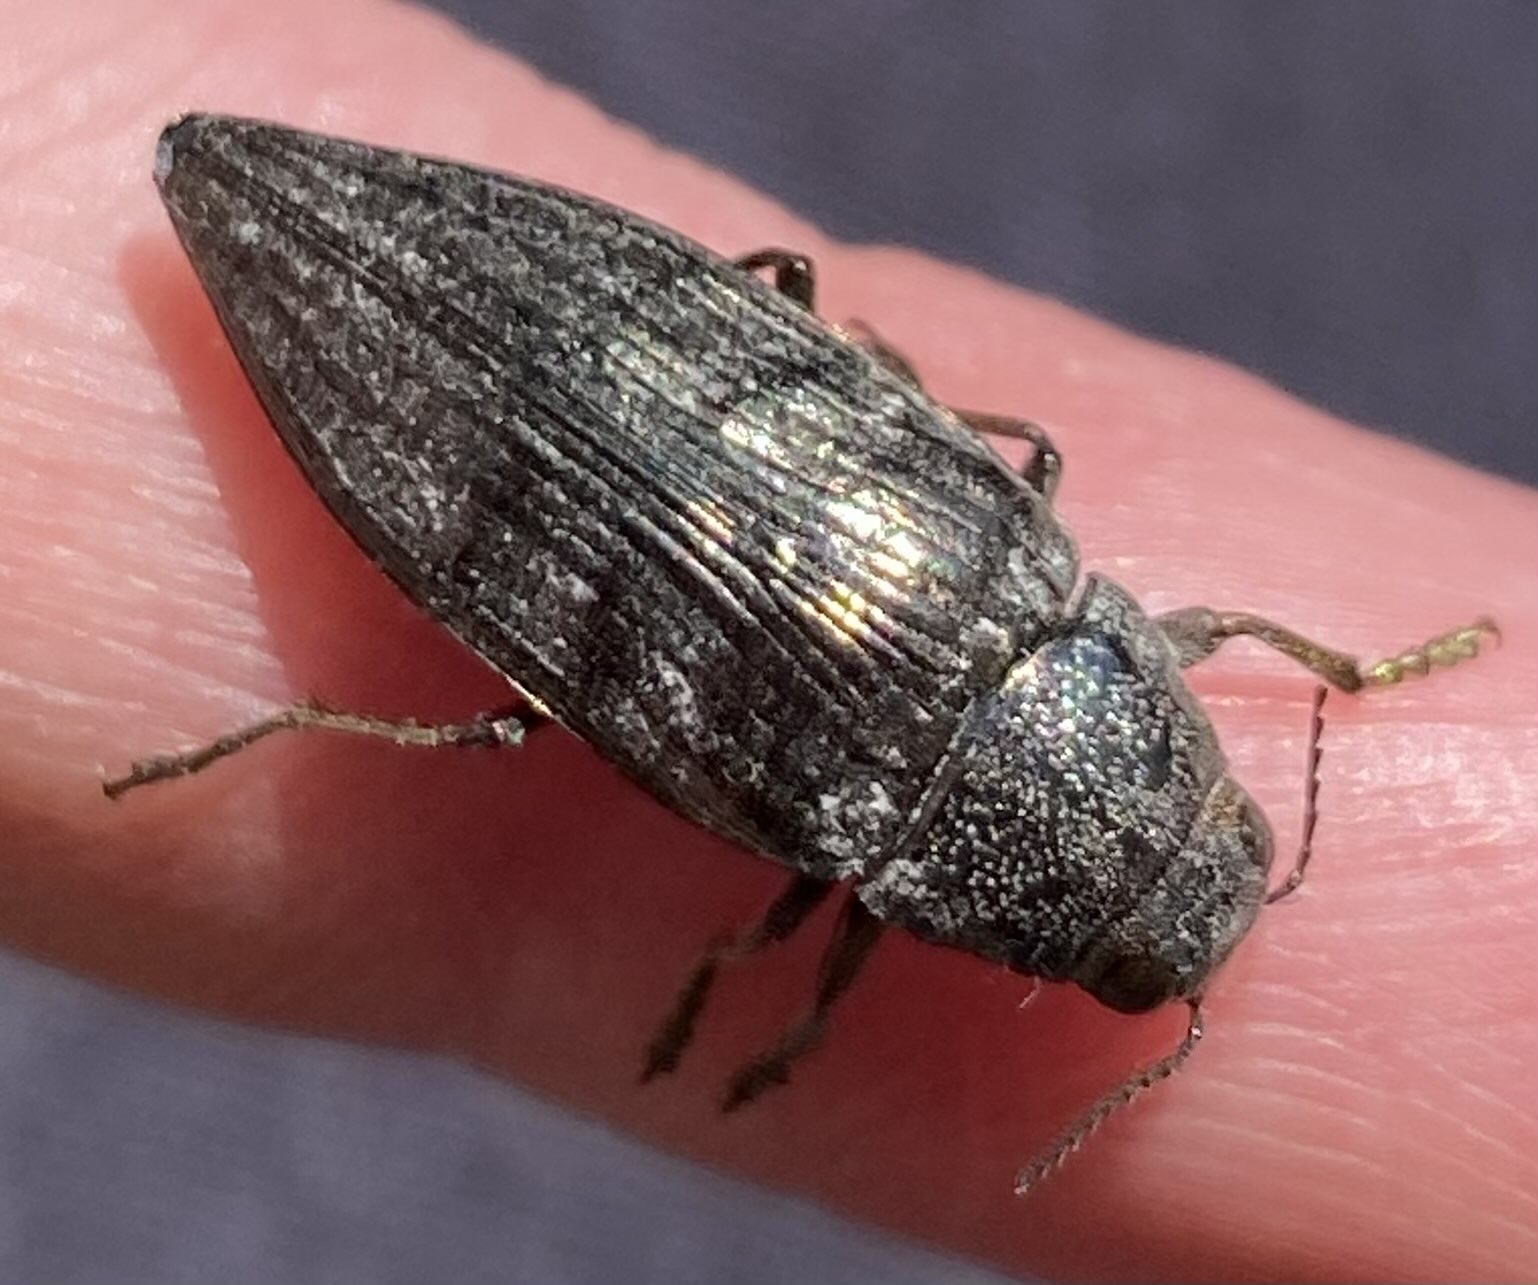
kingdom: Animalia
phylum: Arthropoda
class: Insecta
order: Coleoptera
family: Buprestidae
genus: Buprestis
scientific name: Buprestis maculativentris
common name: Spotted-belly buprestid beetle
